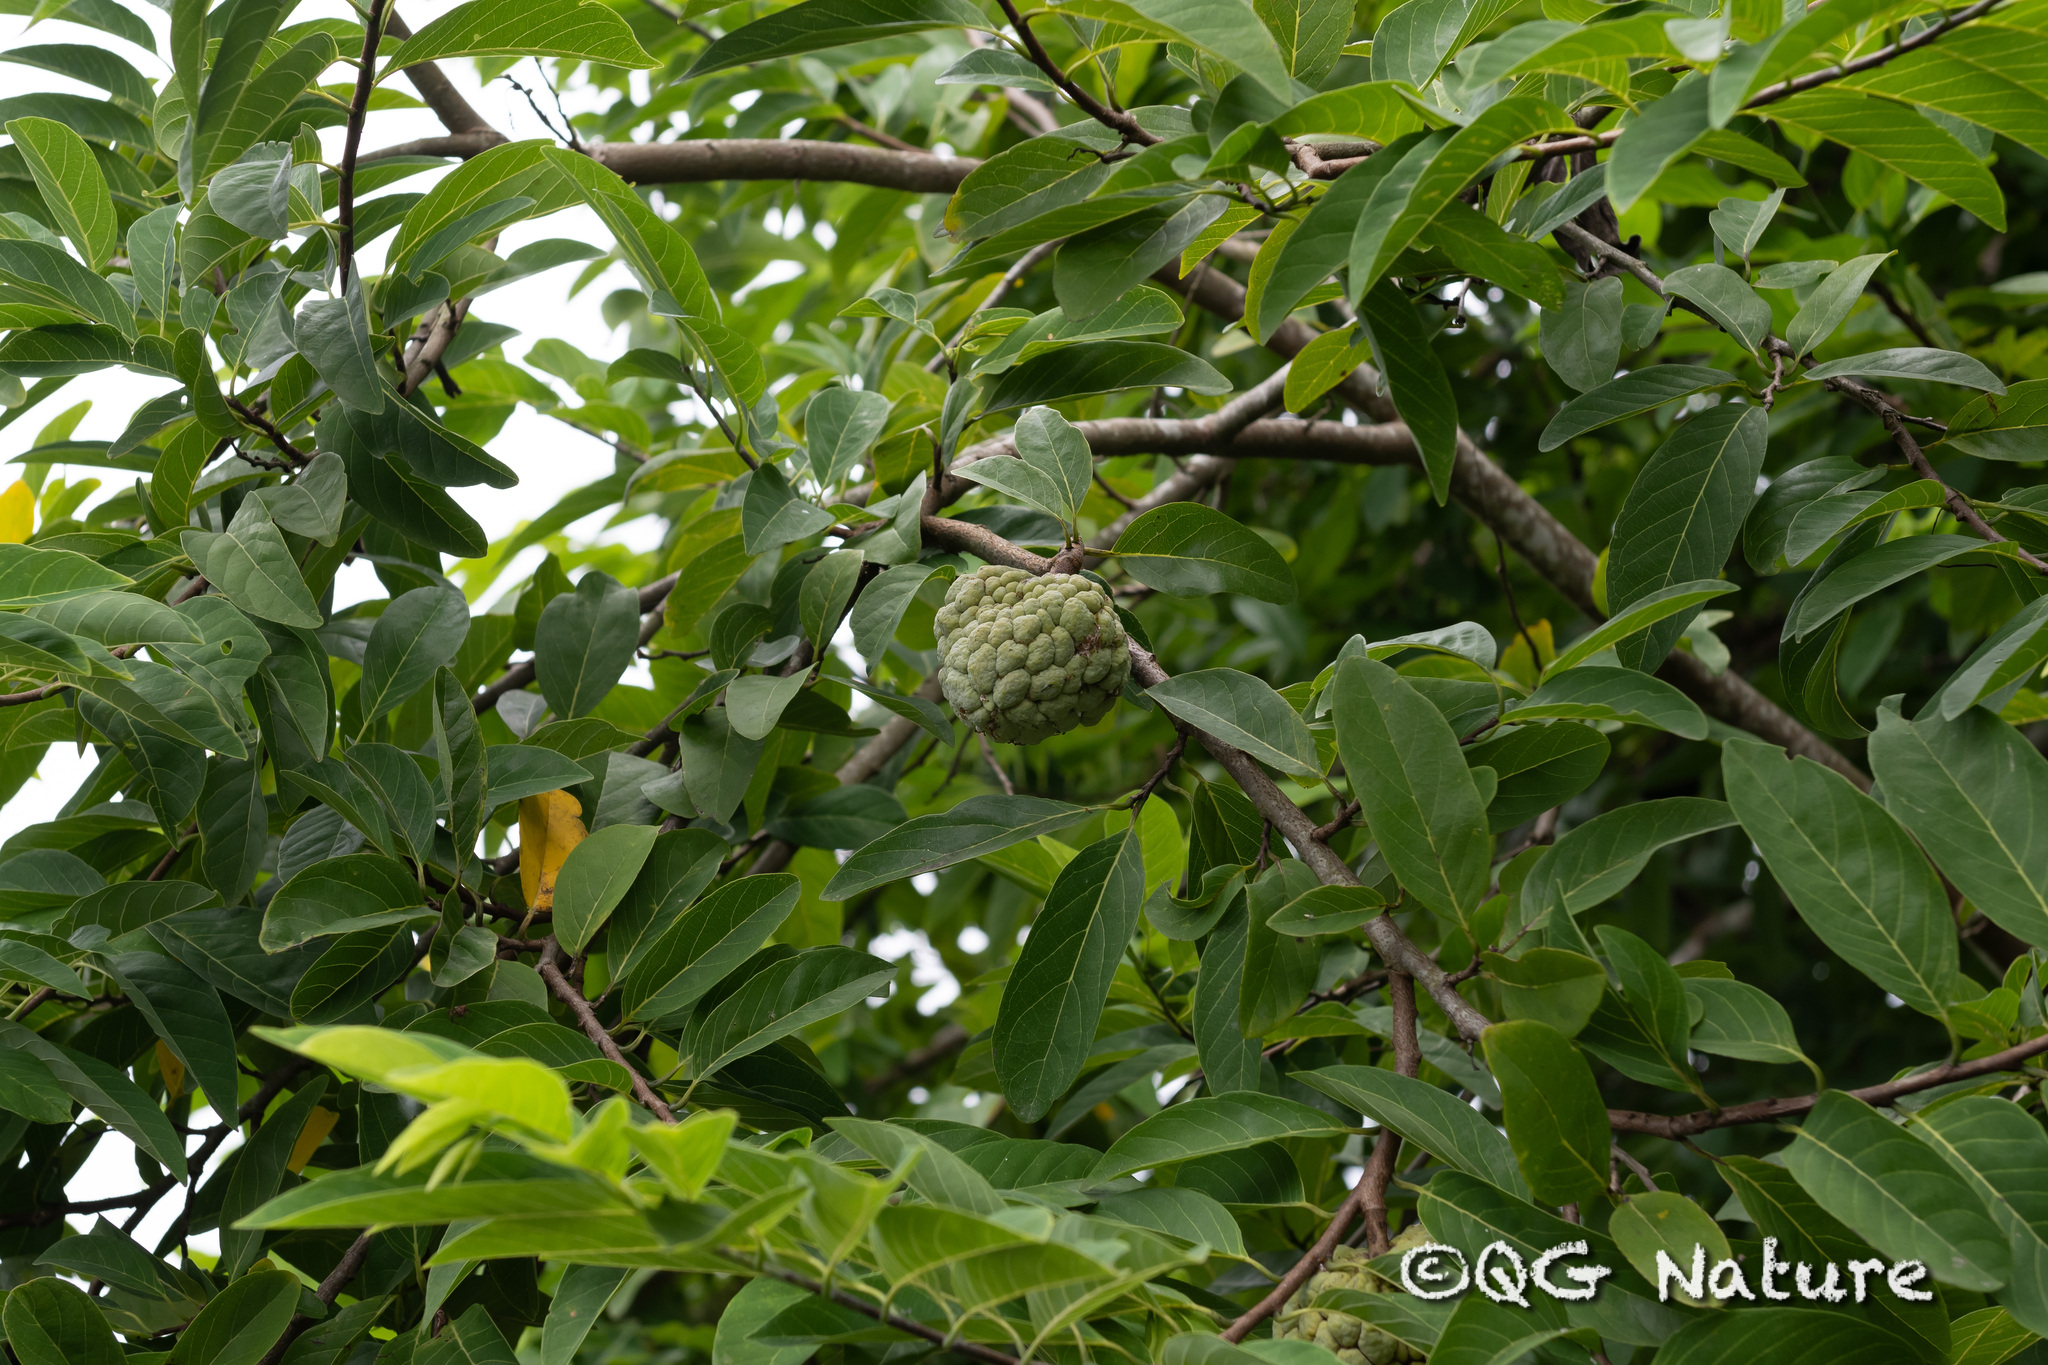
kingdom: Plantae
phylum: Tracheophyta
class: Magnoliopsida
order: Magnoliales
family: Annonaceae
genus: Annona
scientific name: Annona squamosa
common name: Custard-apple
